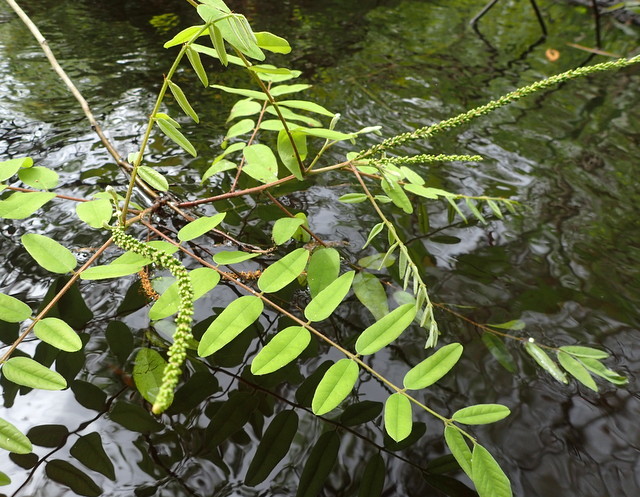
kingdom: Plantae
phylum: Tracheophyta
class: Magnoliopsida
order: Fabales
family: Fabaceae
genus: Amorpha
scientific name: Amorpha fruticosa
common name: False indigo
